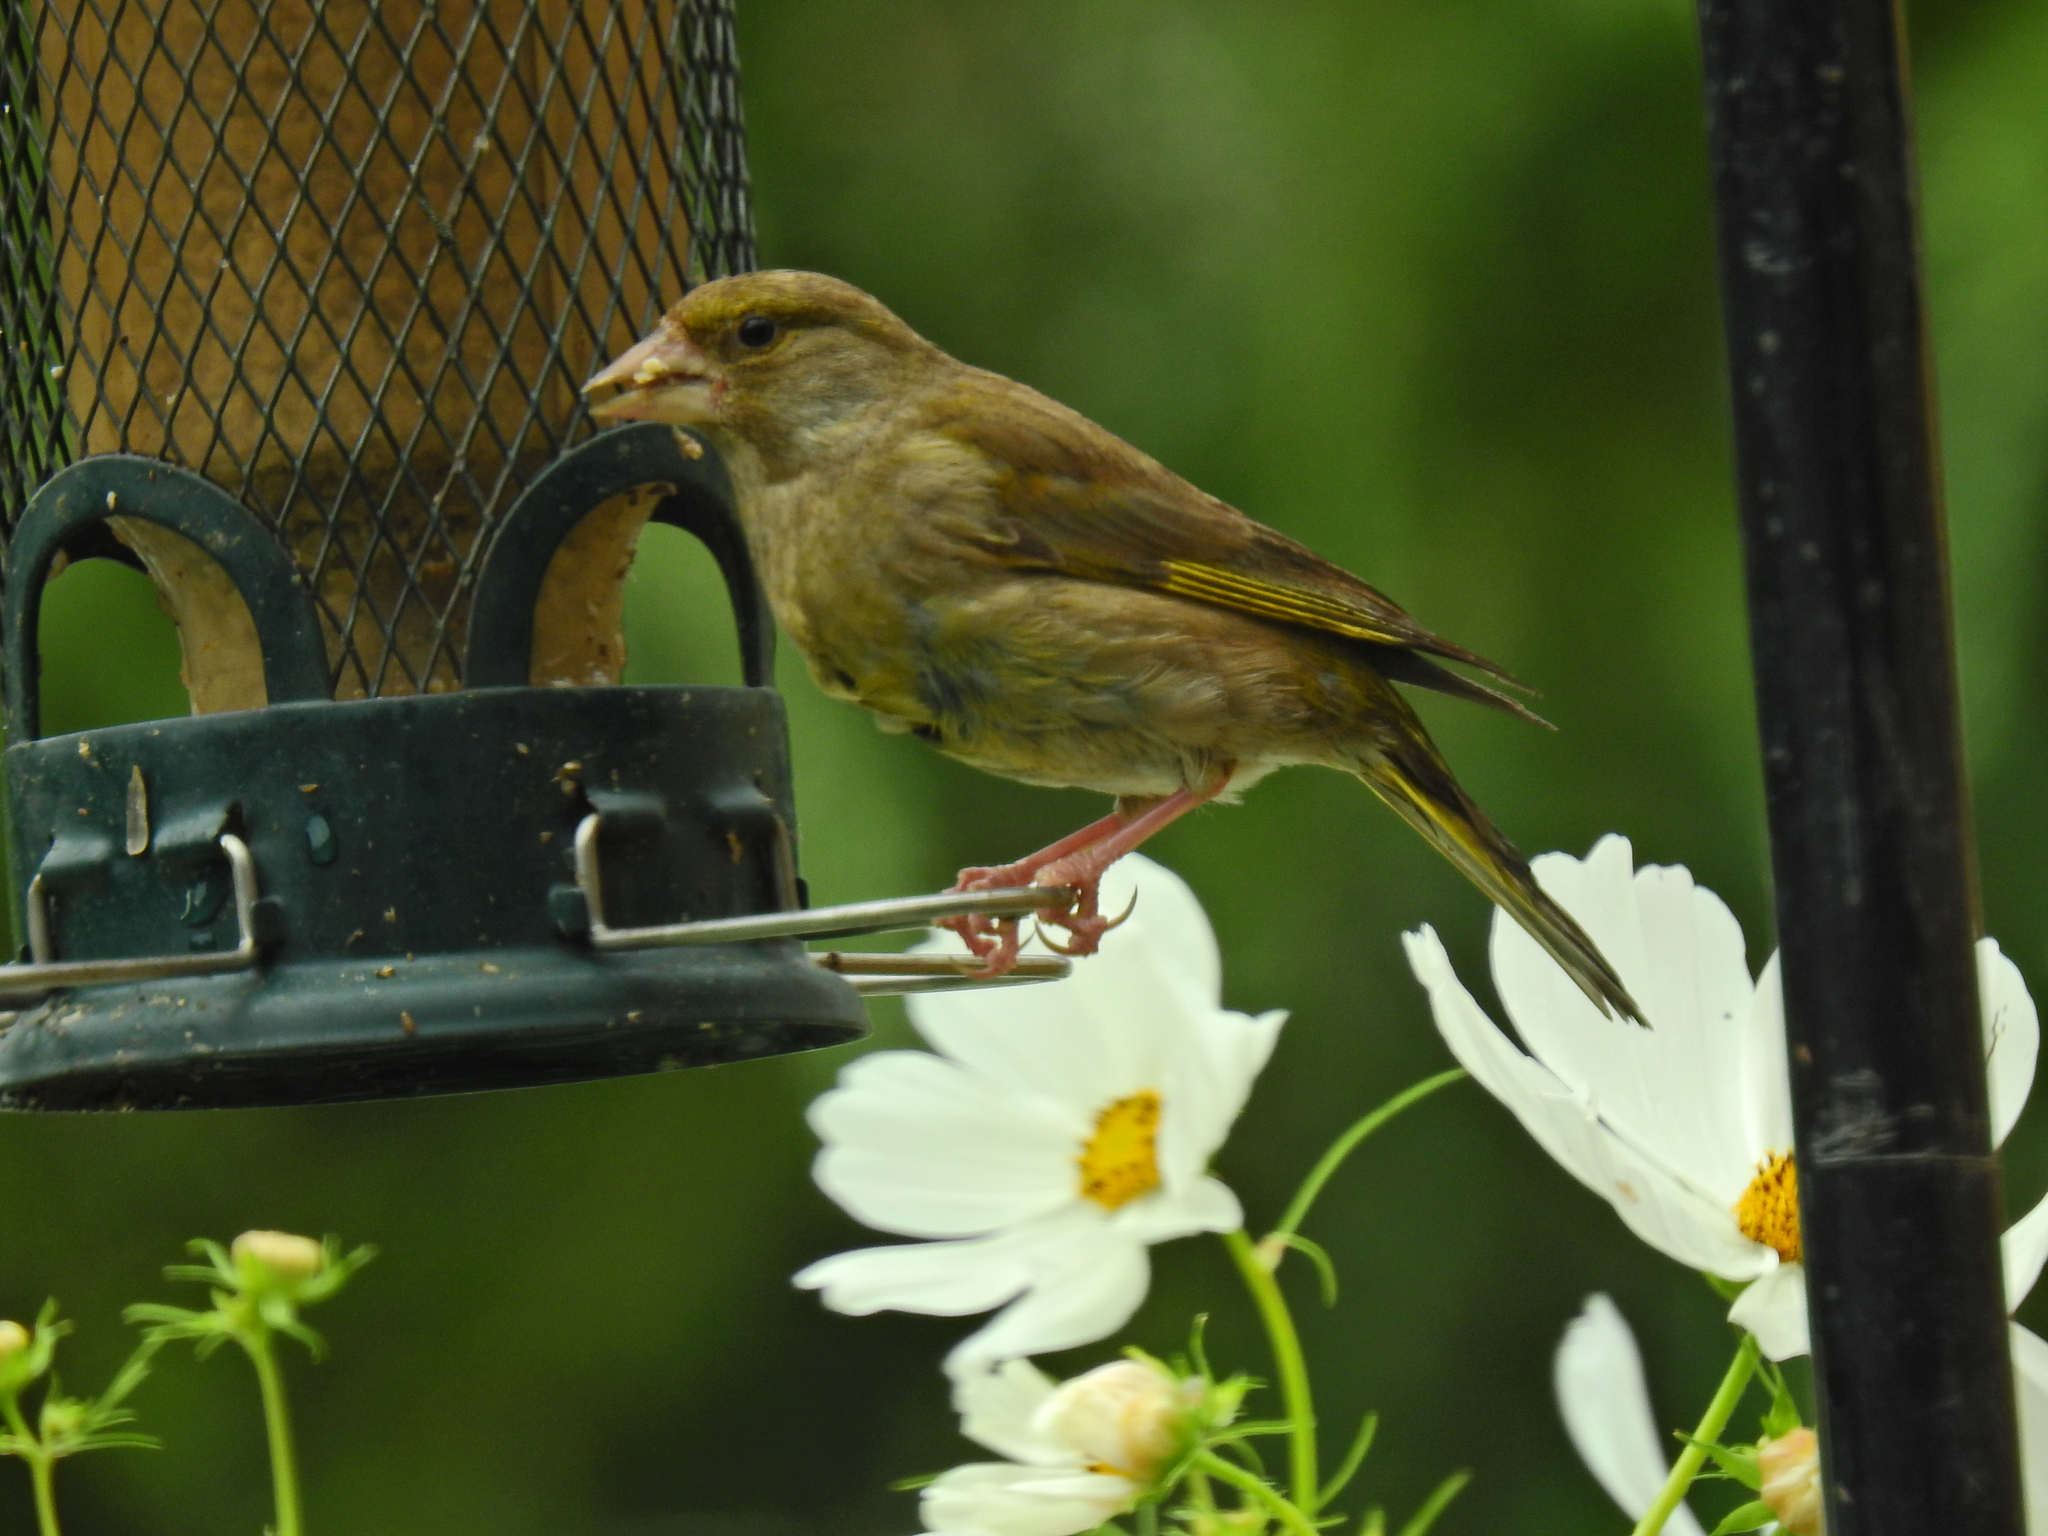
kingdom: Plantae
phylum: Tracheophyta
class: Liliopsida
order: Poales
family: Poaceae
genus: Chloris
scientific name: Chloris chloris
